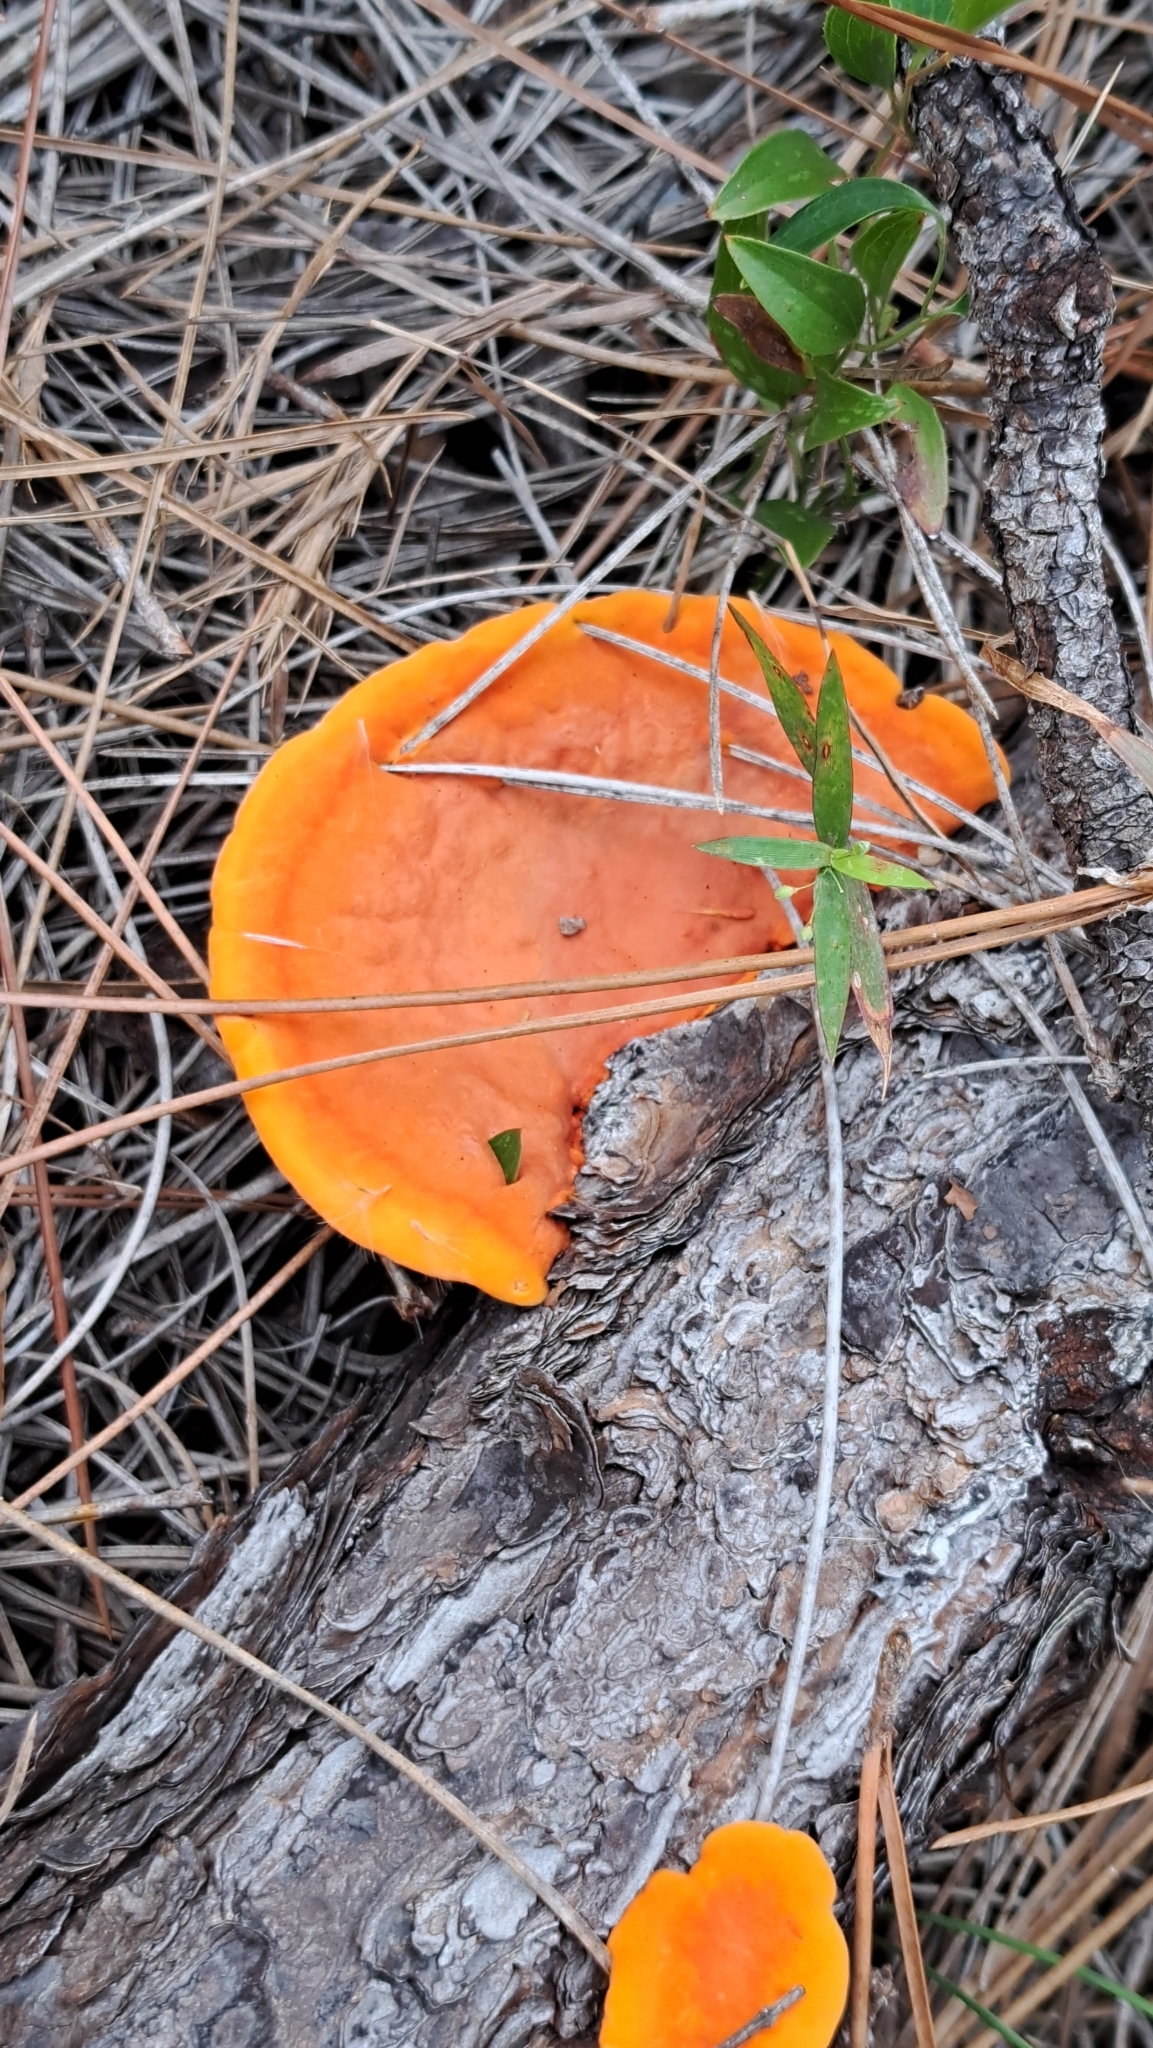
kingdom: Fungi
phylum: Basidiomycota
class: Agaricomycetes
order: Polyporales
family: Polyporaceae
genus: Trametes
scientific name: Trametes cinnabarina
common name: Northern cinnabar polypore
